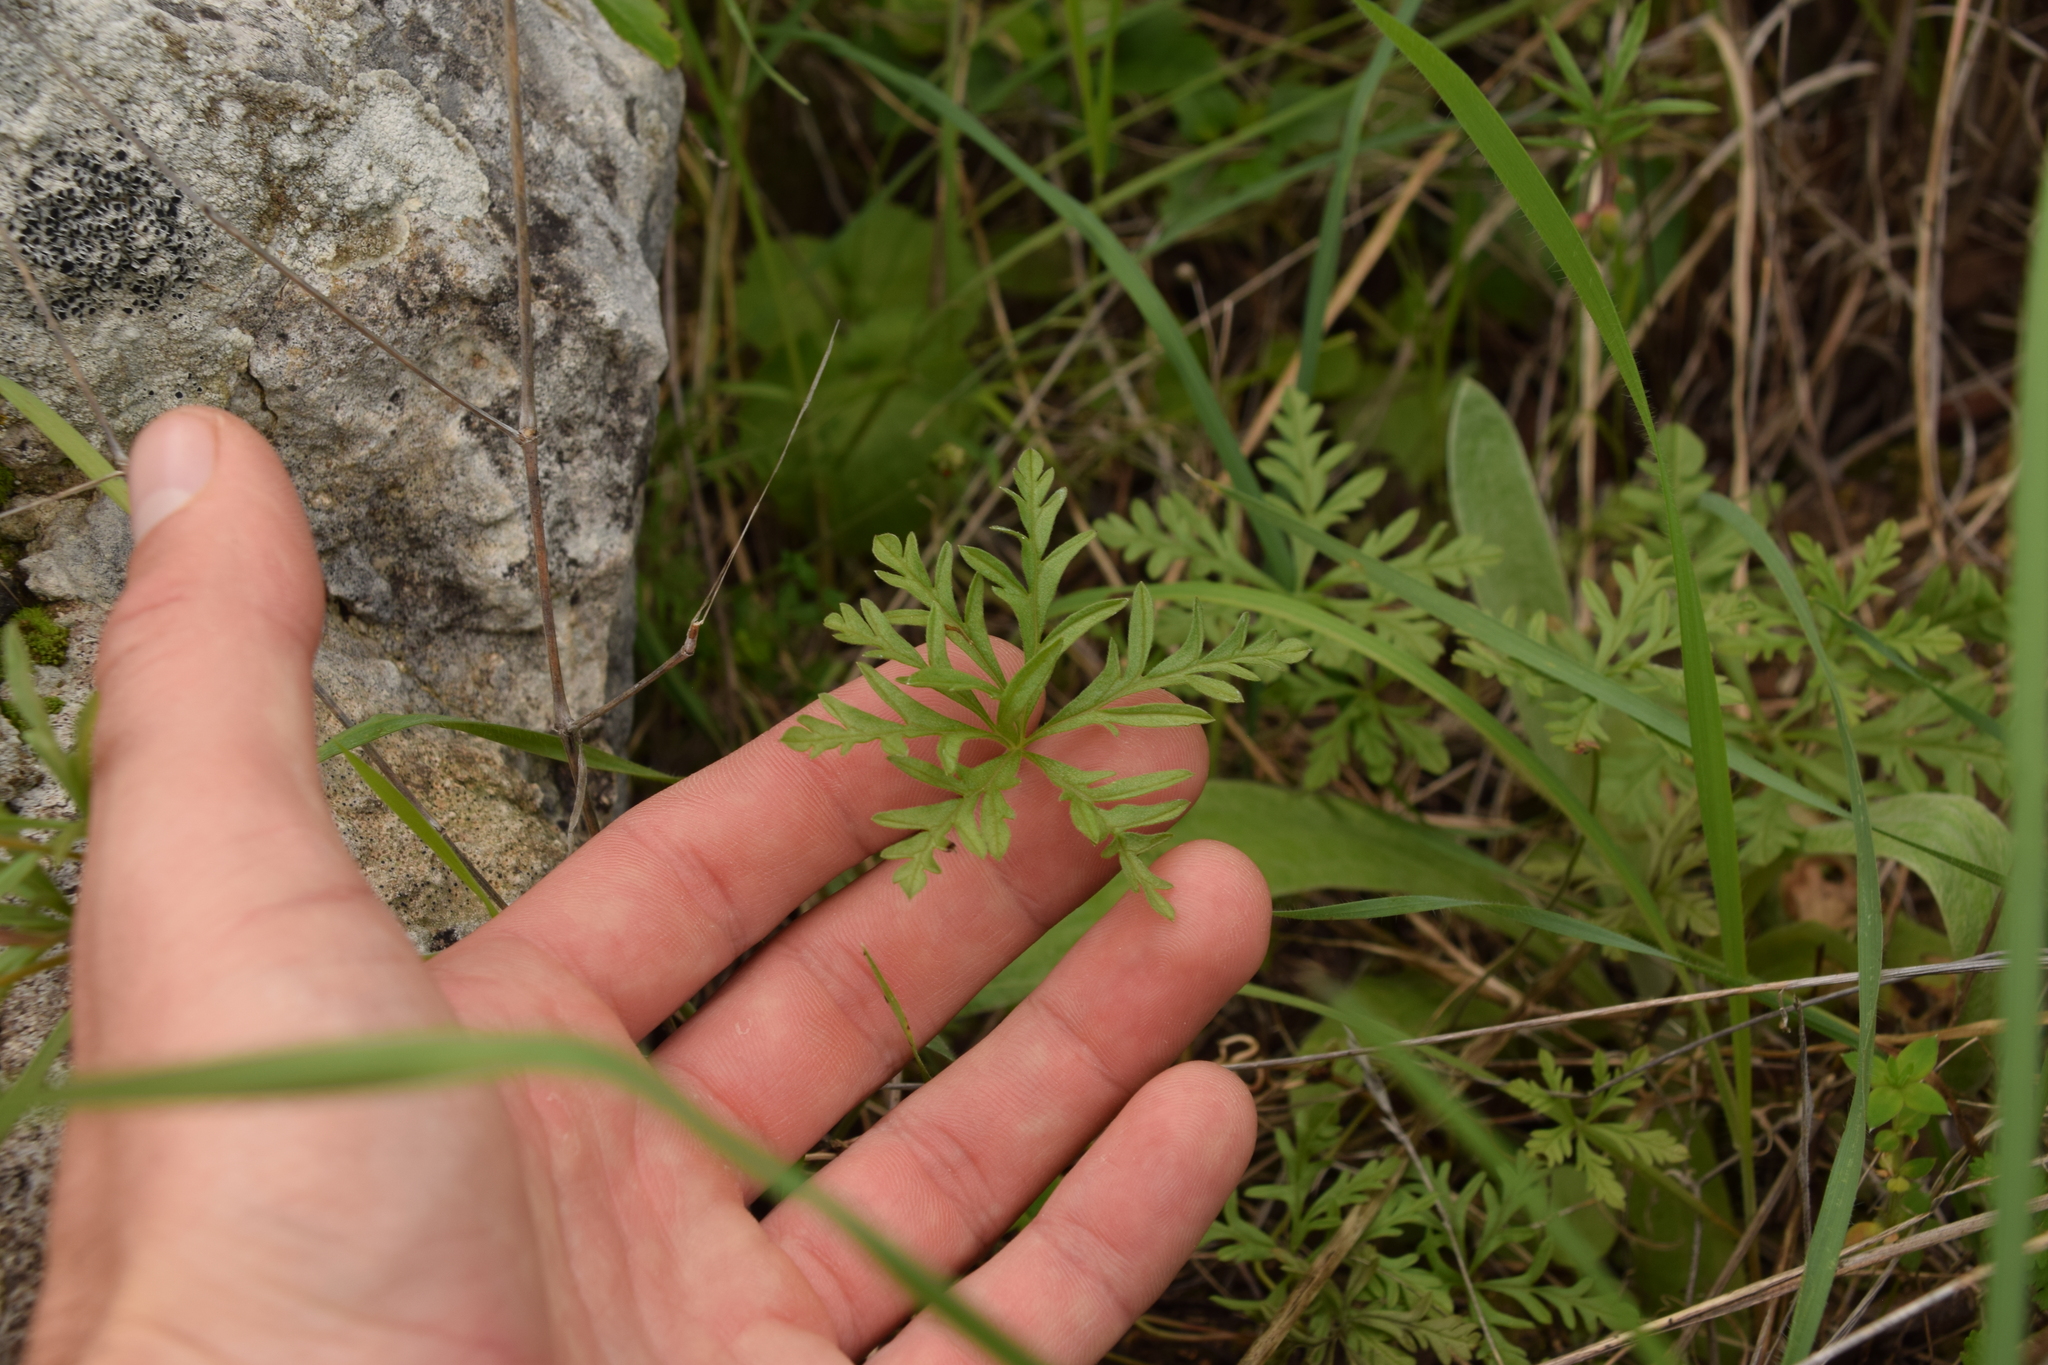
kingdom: Plantae
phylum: Tracheophyta
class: Magnoliopsida
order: Geraniales
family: Geraniaceae
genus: Geranium
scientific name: Geranium tuberosum
